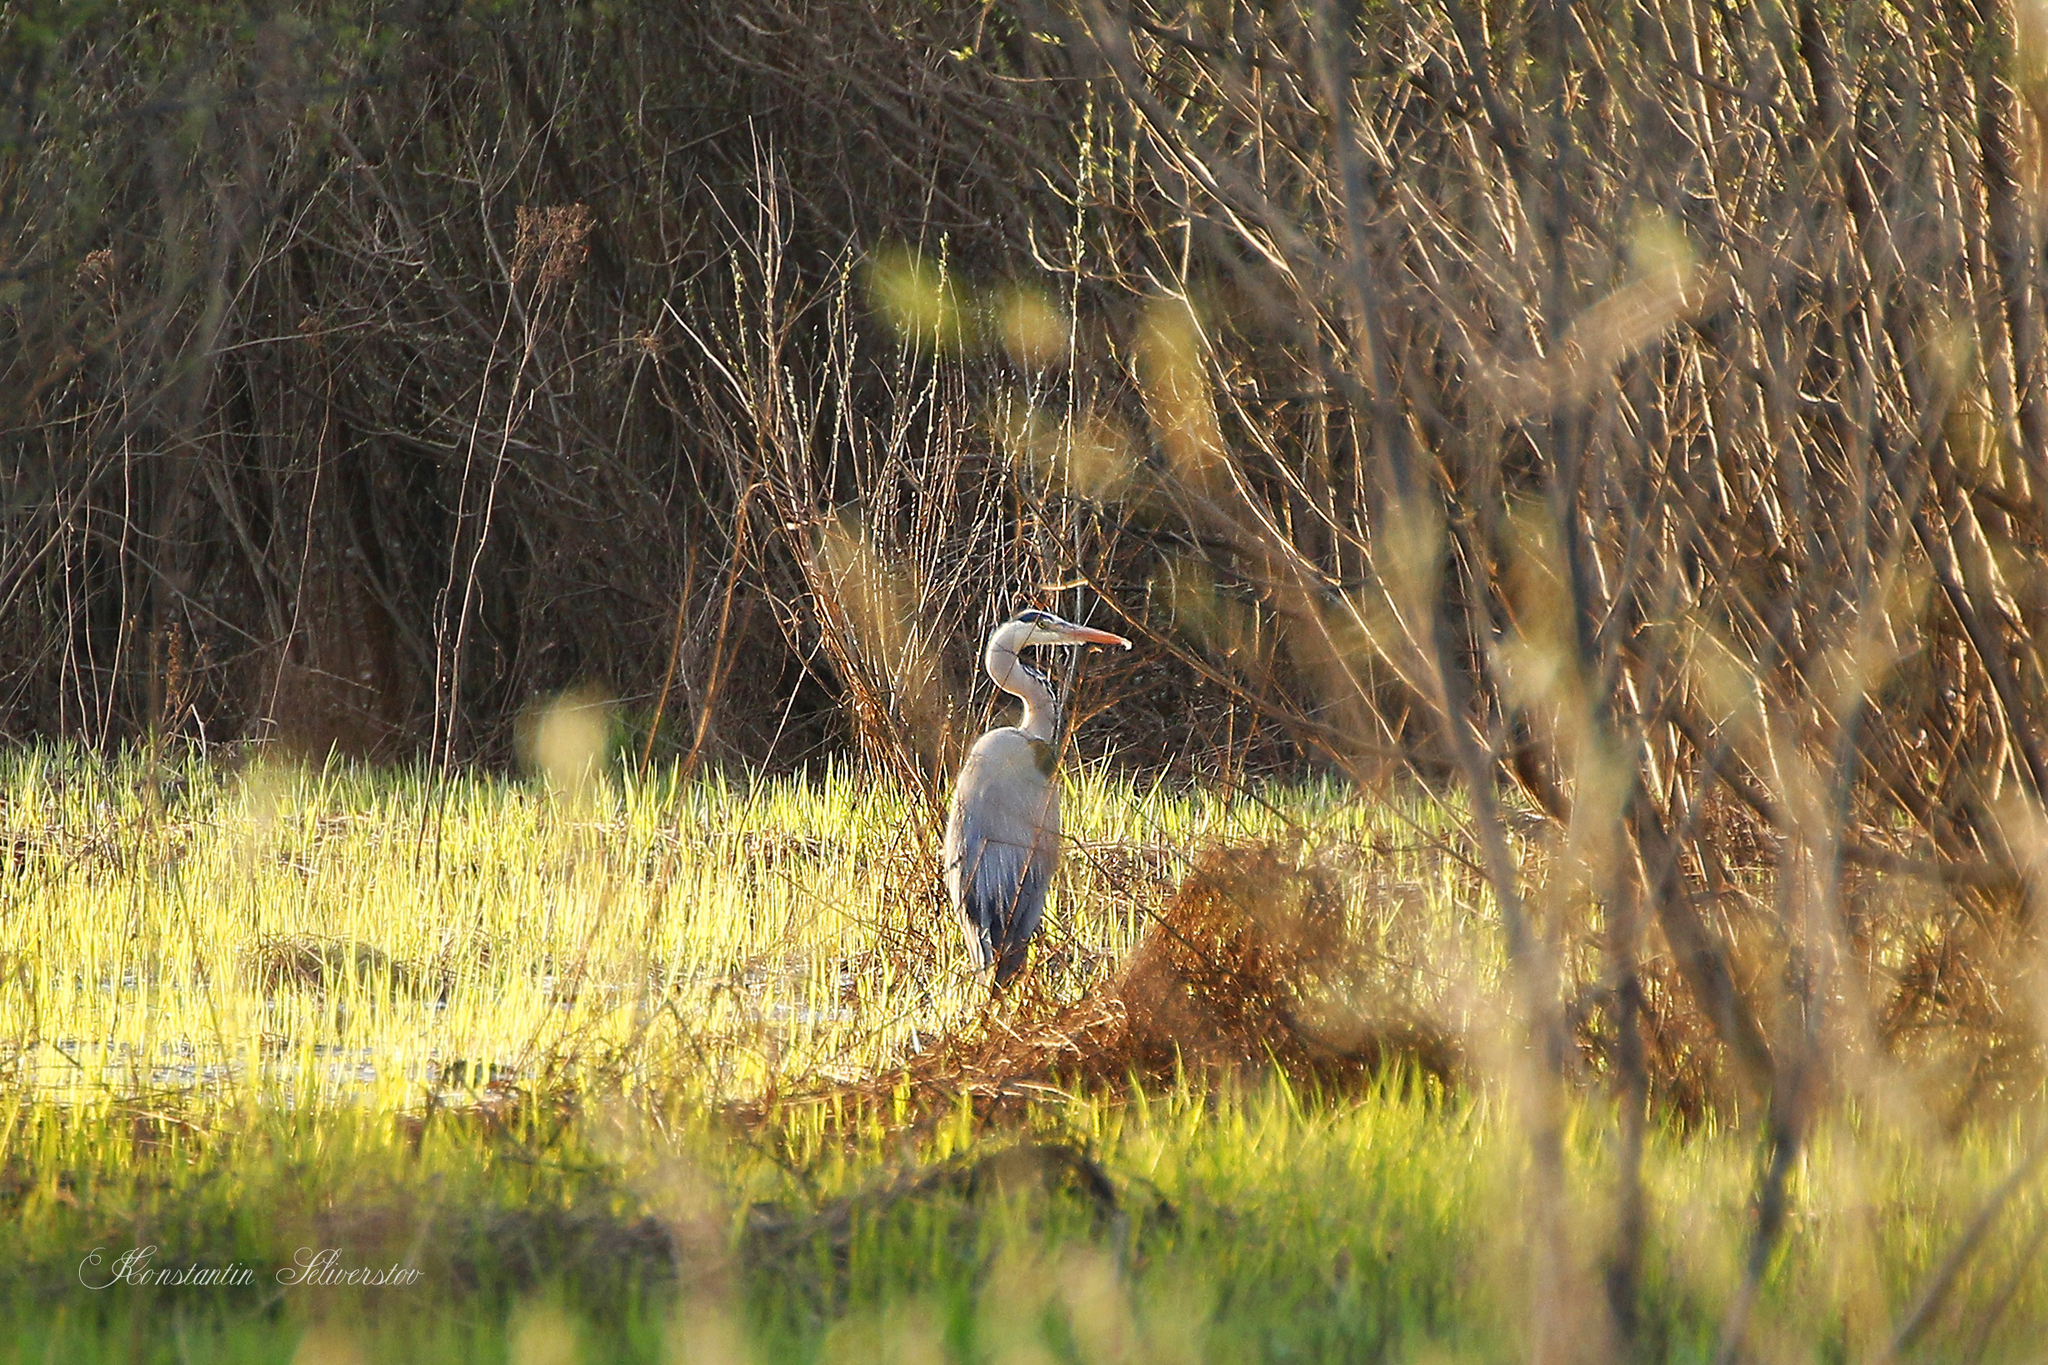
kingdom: Animalia
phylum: Chordata
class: Aves
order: Pelecaniformes
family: Ardeidae
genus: Ardea
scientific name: Ardea cinerea
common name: Grey heron
